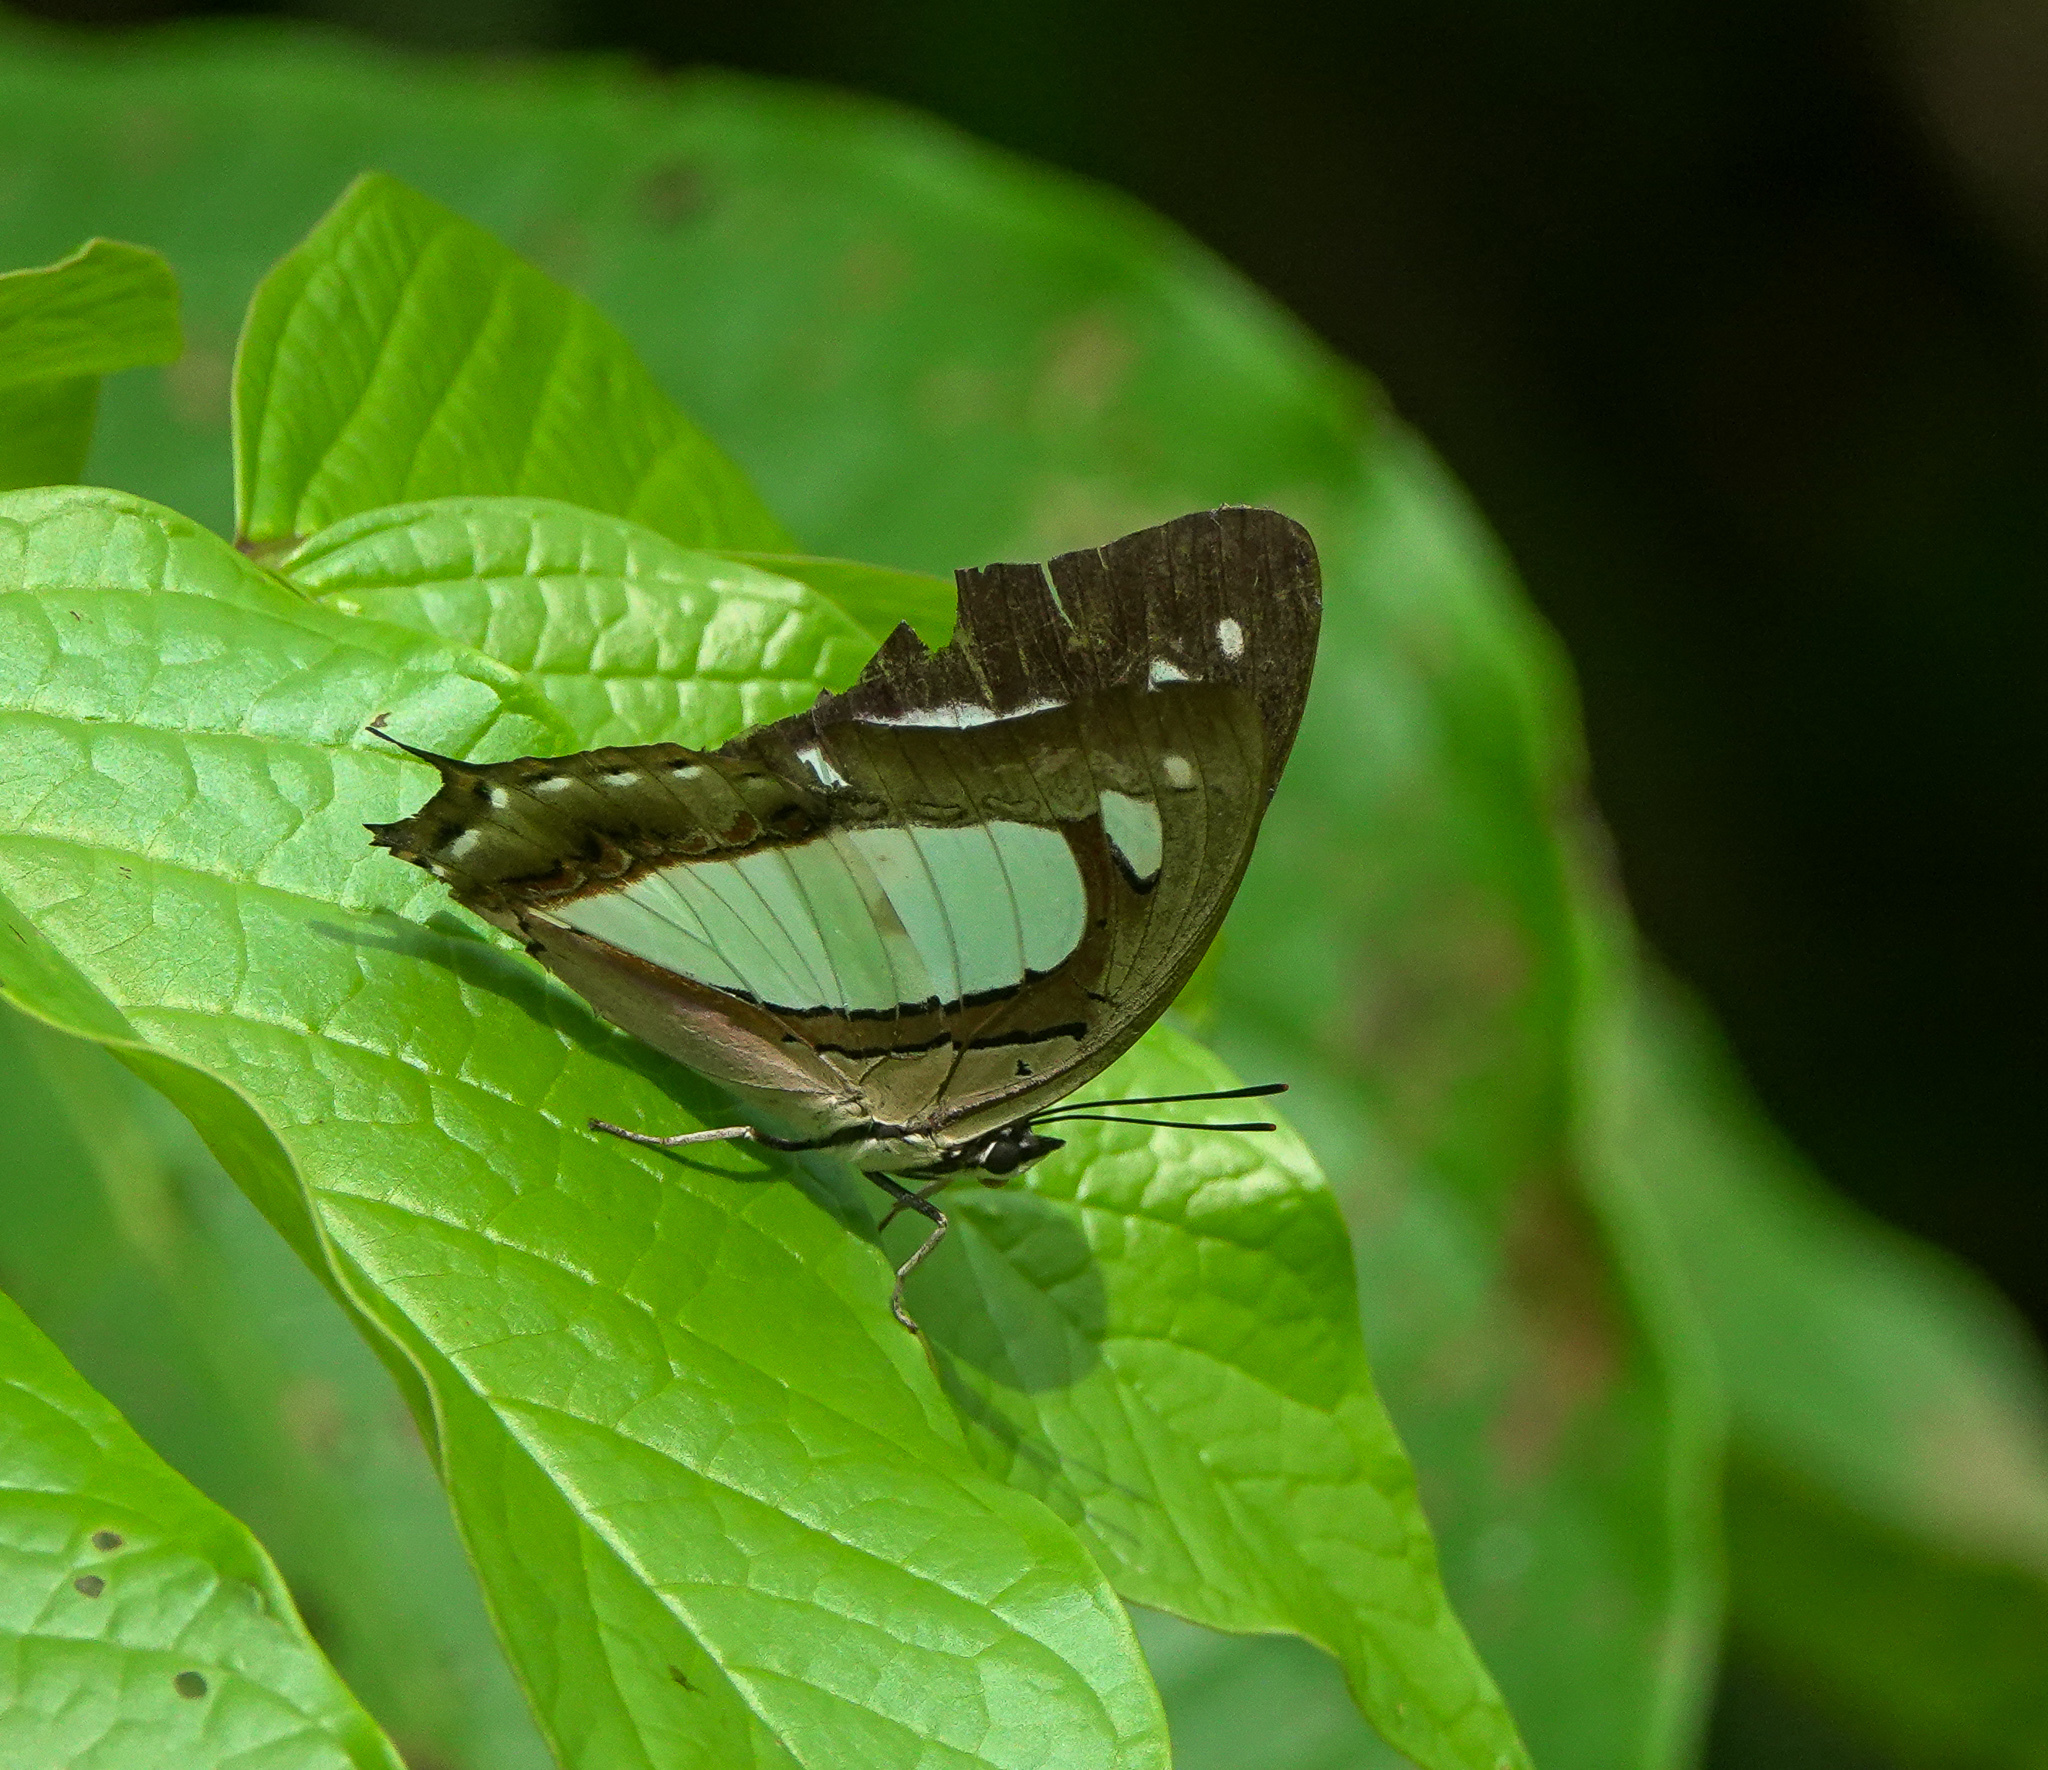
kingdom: Animalia
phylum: Arthropoda
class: Insecta
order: Lepidoptera
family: Nymphalidae
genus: Polyura
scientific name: Polyura
